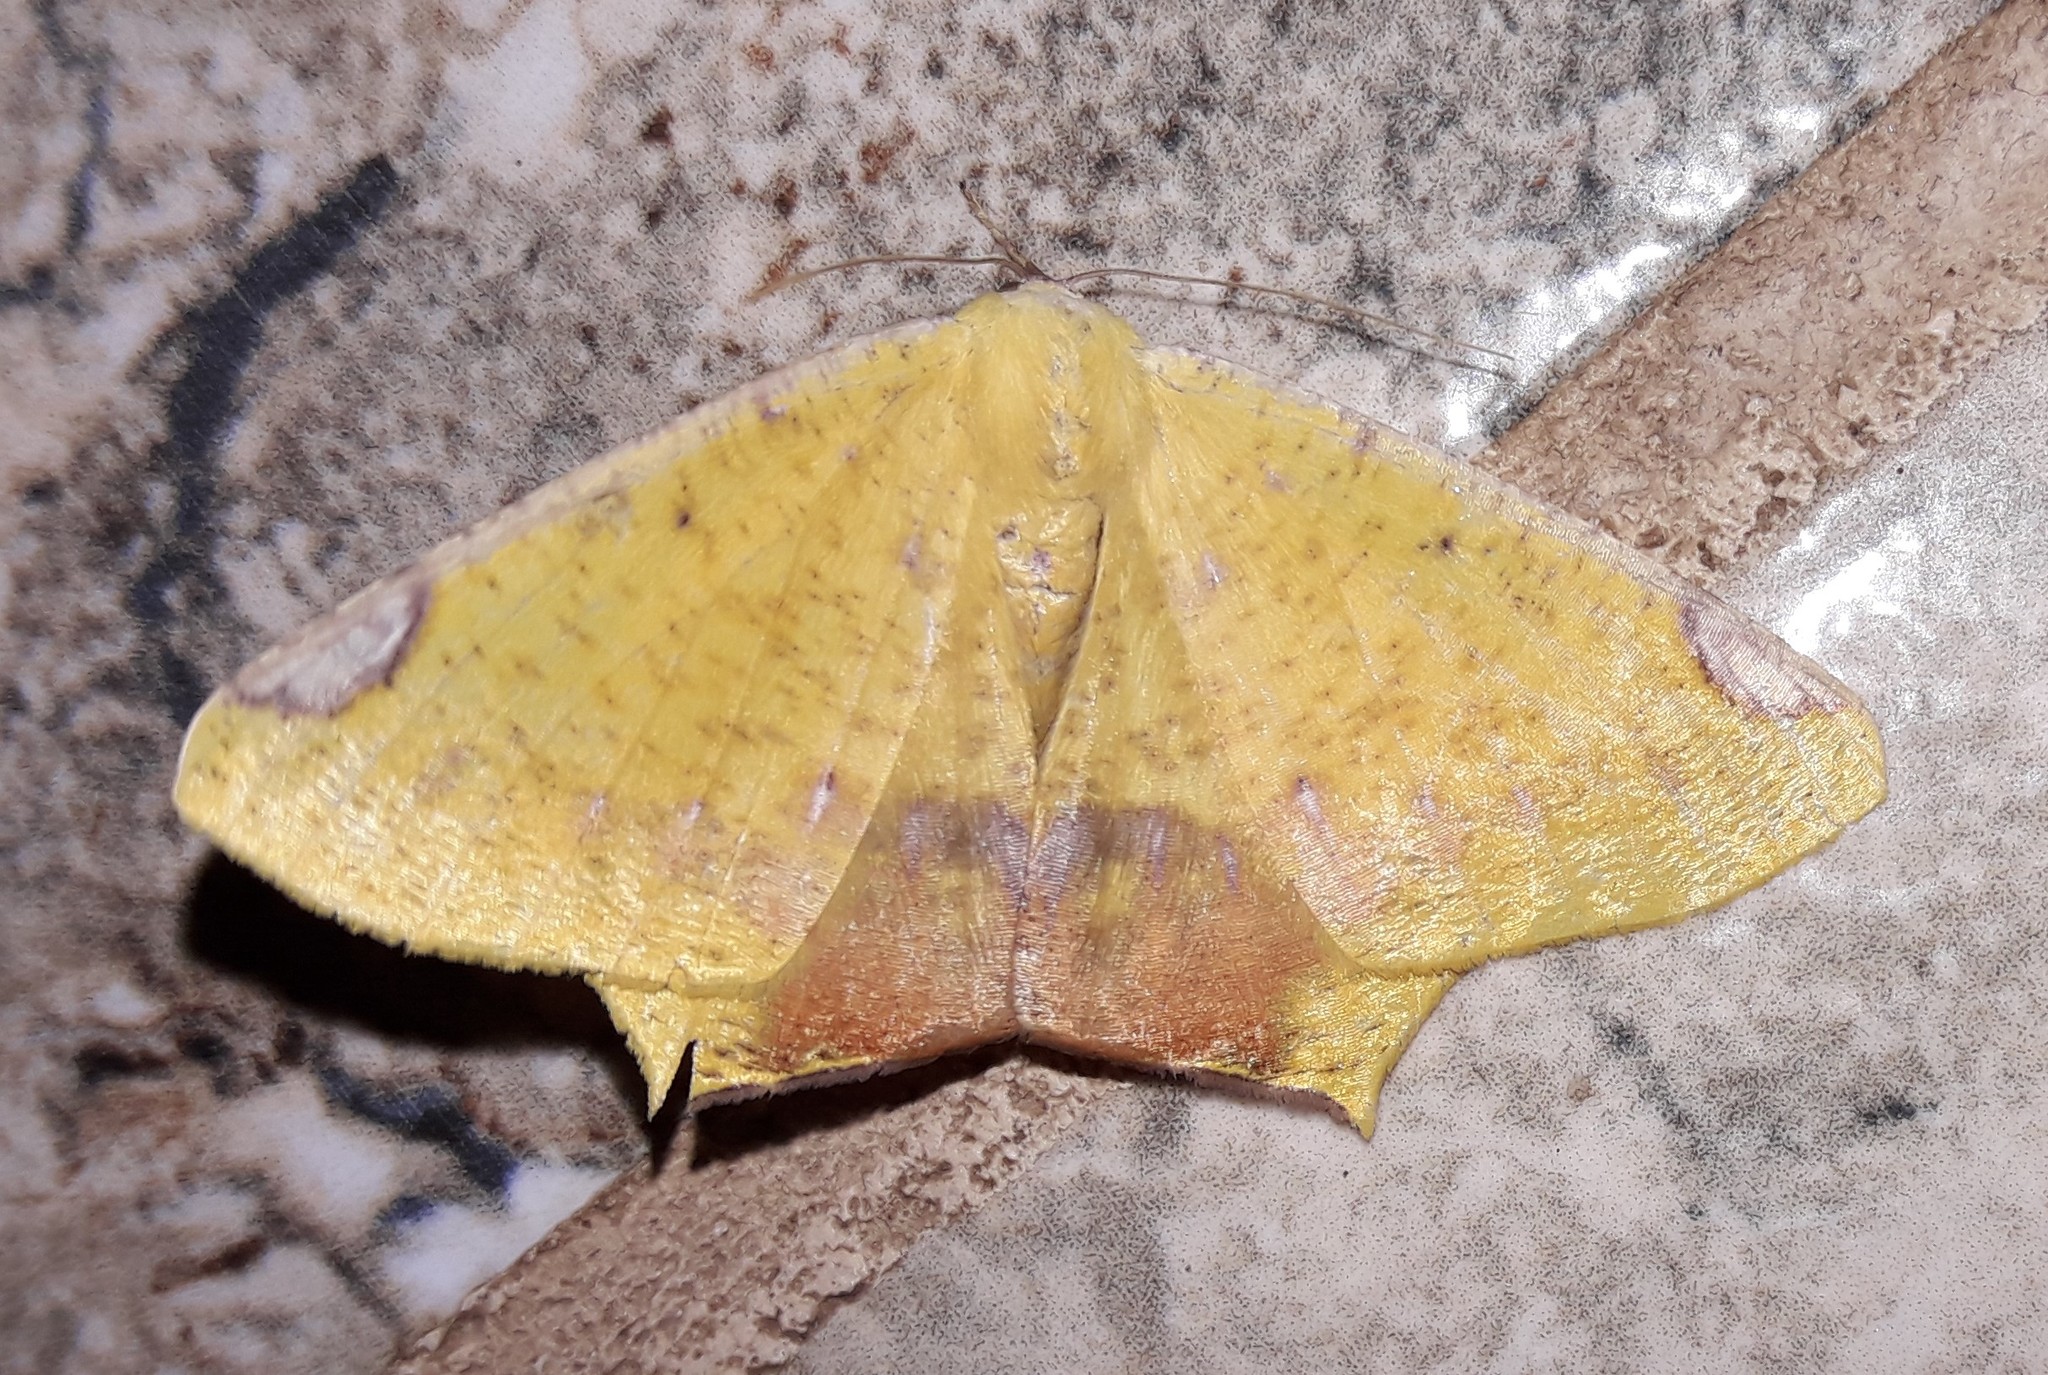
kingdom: Animalia
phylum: Arthropoda
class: Insecta
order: Lepidoptera
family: Geometridae
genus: Nepheloleuca
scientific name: Nepheloleuca politia
